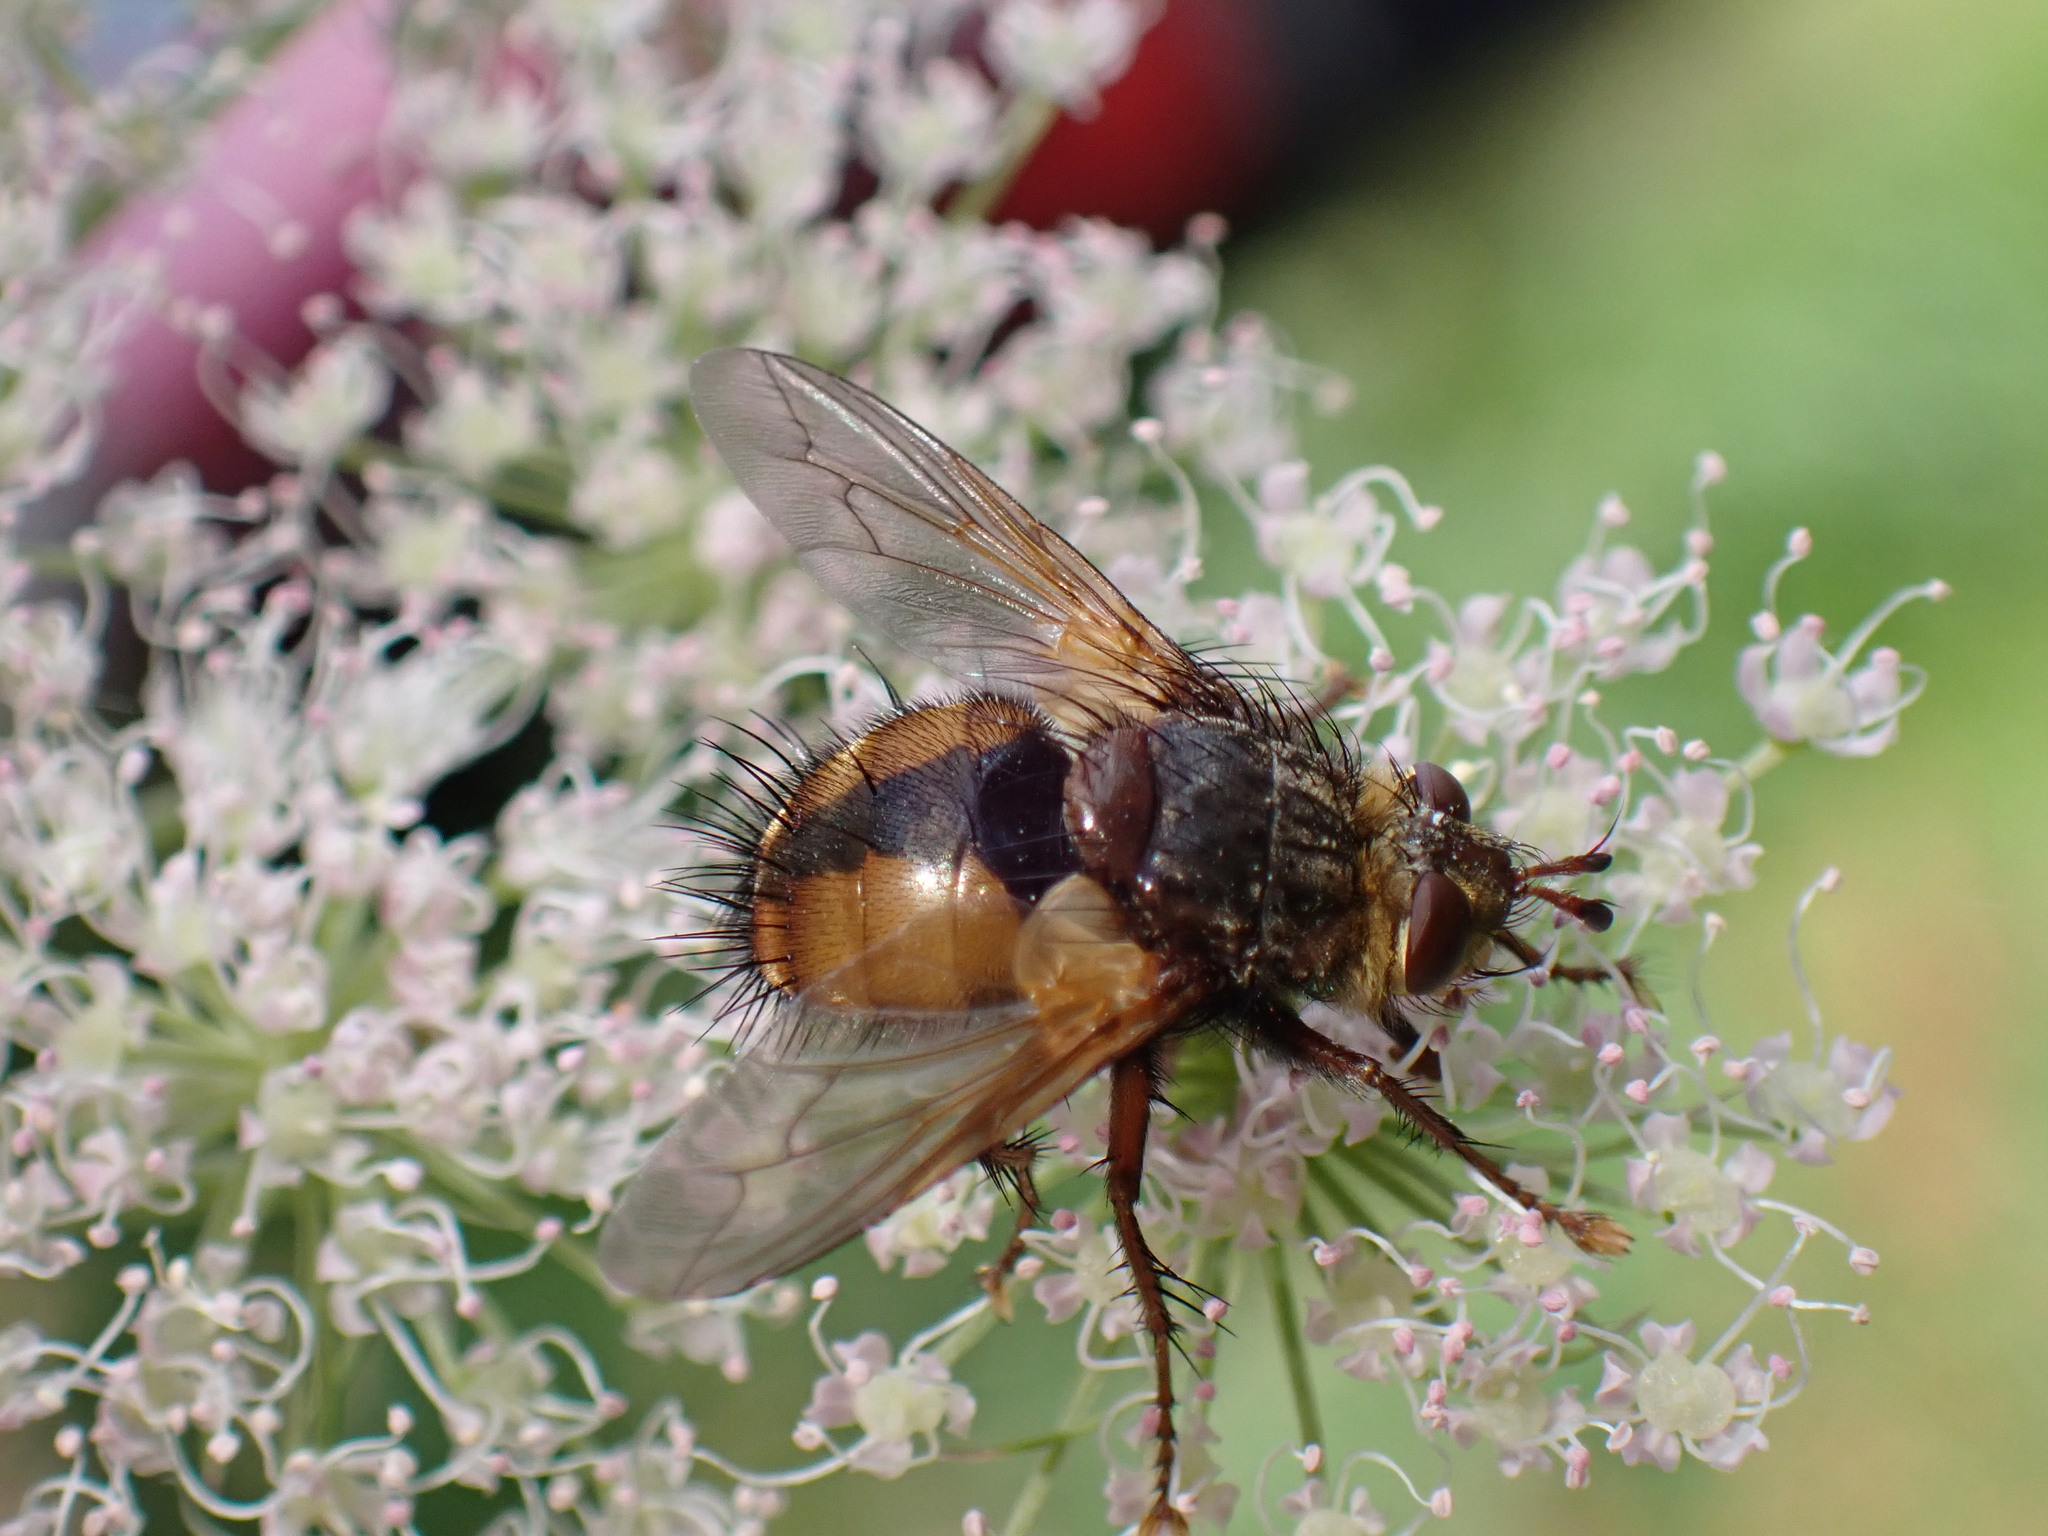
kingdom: Animalia
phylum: Arthropoda
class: Insecta
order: Diptera
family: Tachinidae
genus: Tachina
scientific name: Tachina fera
